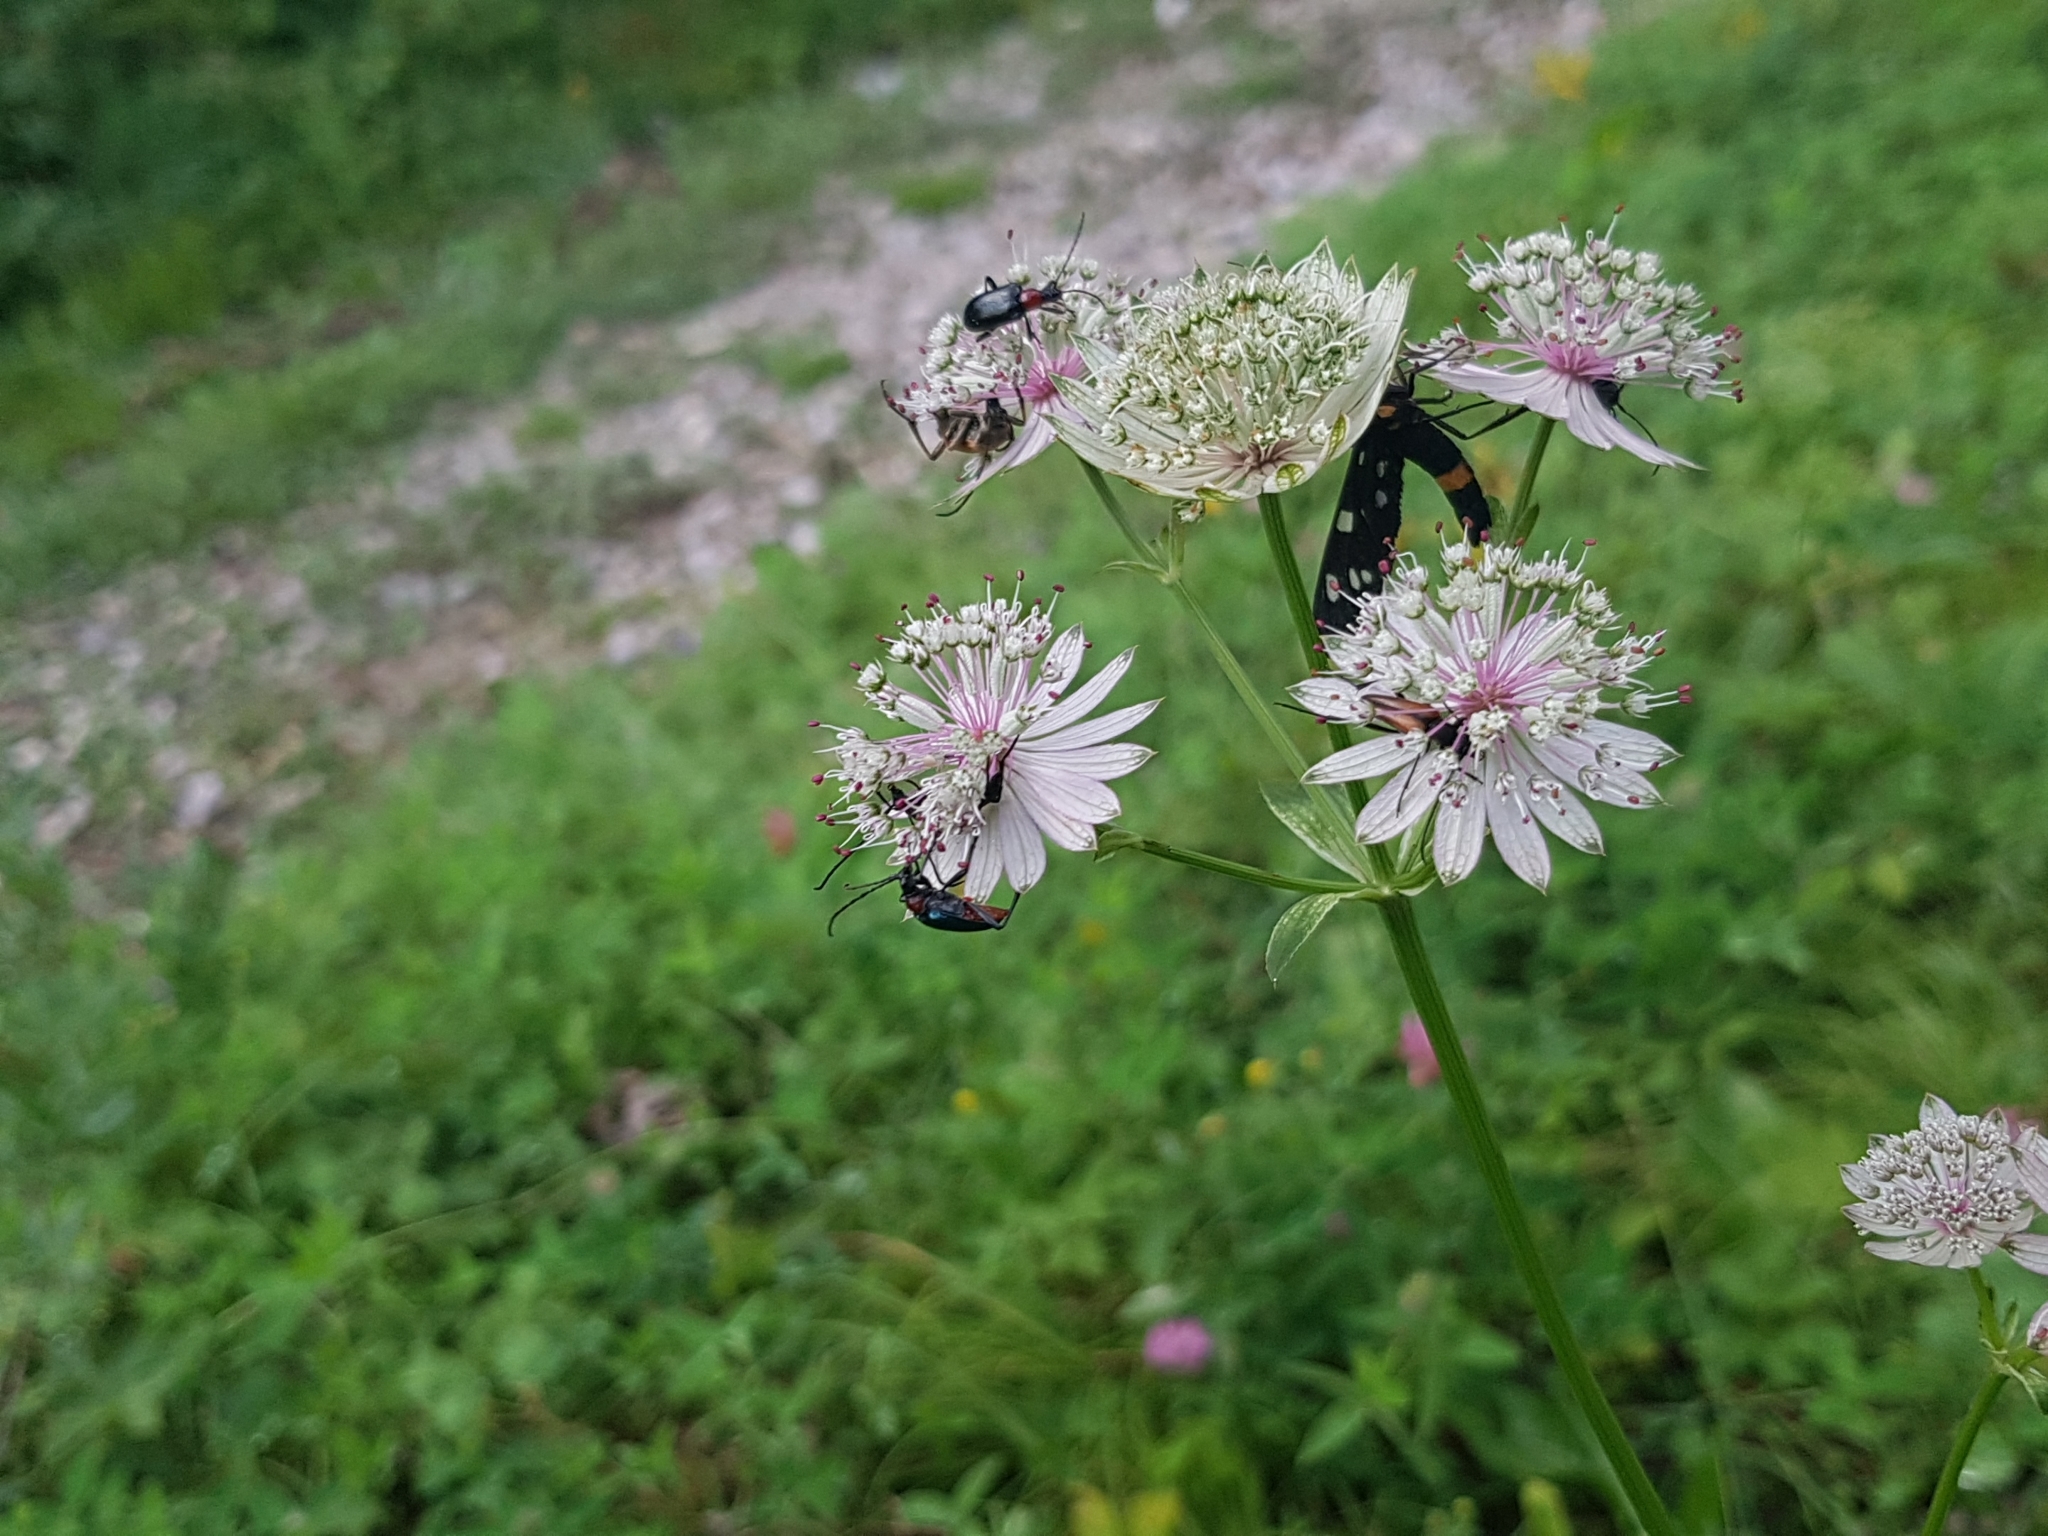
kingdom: Plantae
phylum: Tracheophyta
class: Magnoliopsida
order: Apiales
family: Apiaceae
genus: Astrantia
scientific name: Astrantia major
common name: Greater masterwort
